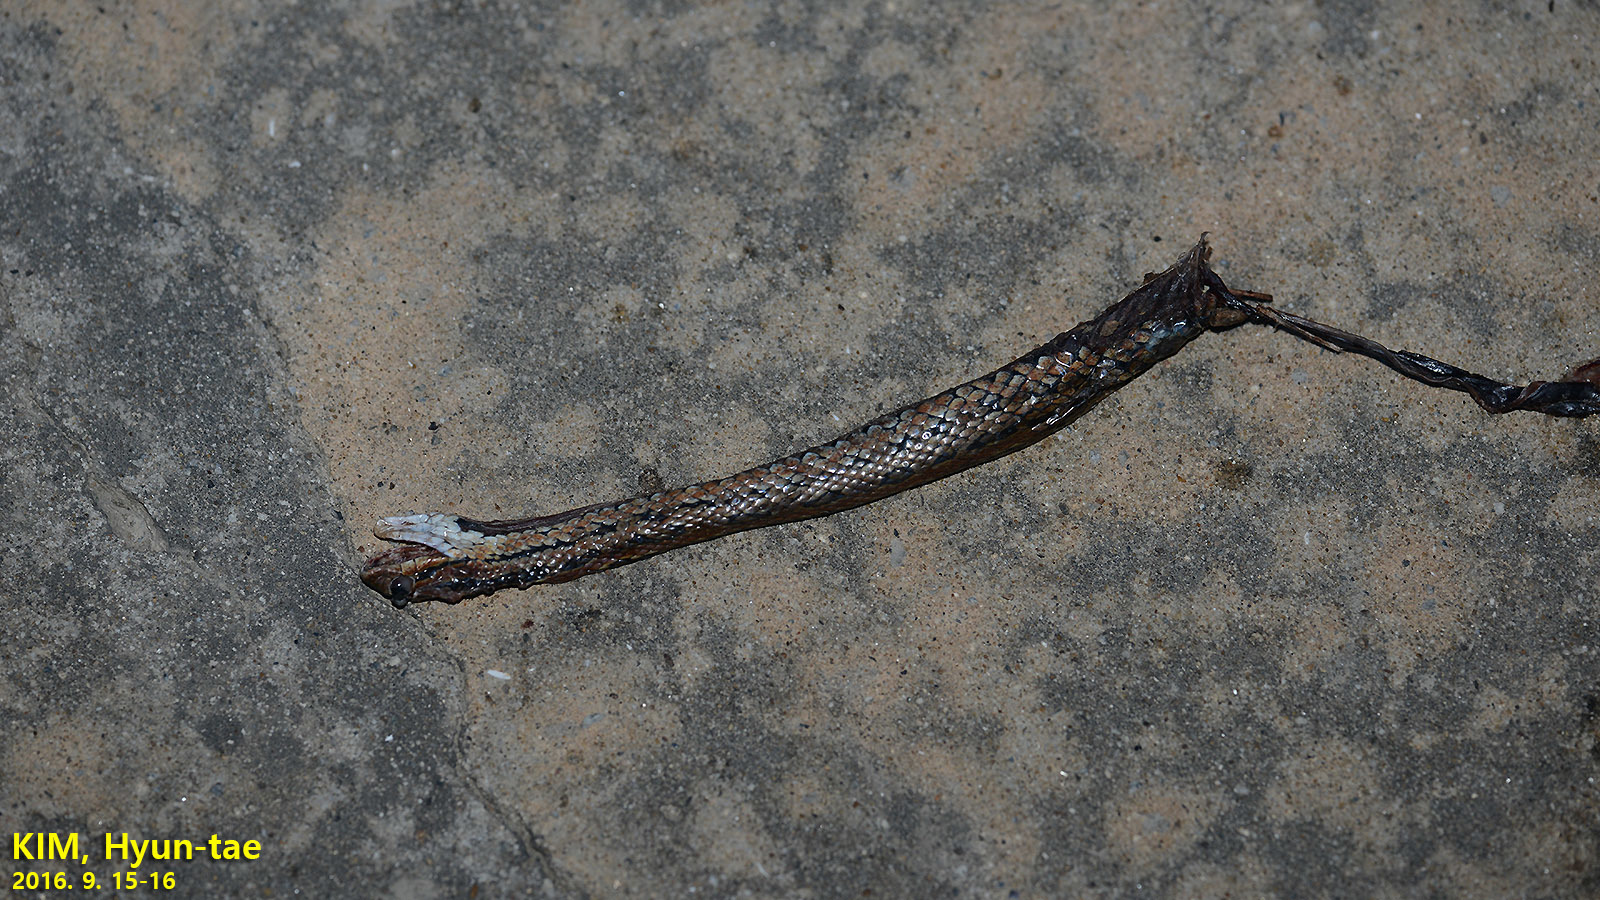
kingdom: Animalia
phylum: Chordata
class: Squamata
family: Colubridae
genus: Oocatochus
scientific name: Oocatochus rufodorsatus
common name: Frog-eating rat snake
